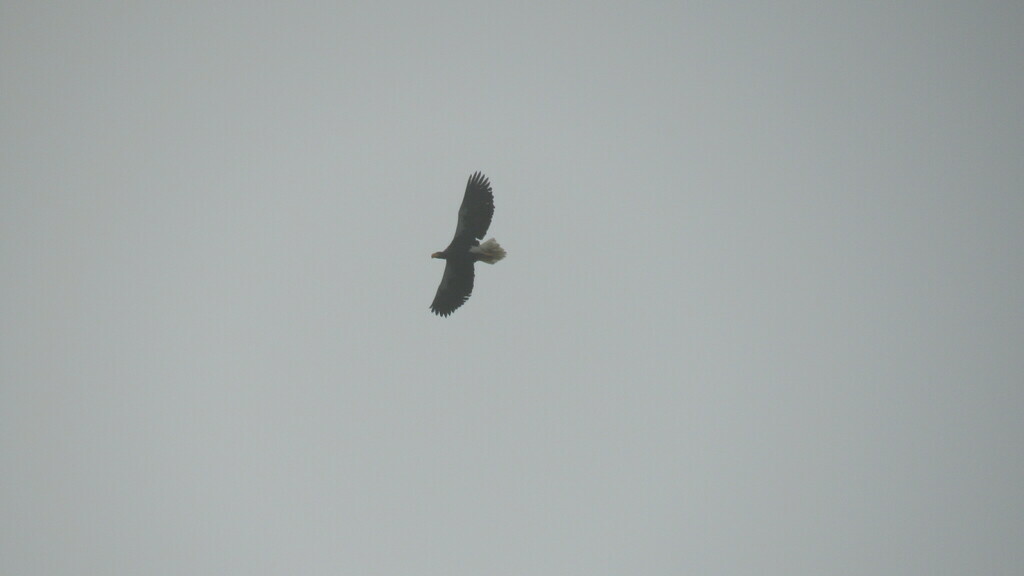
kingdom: Animalia
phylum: Chordata
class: Aves
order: Accipitriformes
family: Accipitridae
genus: Haliaeetus
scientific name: Haliaeetus pelagicus
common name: Steller's sea eagle
